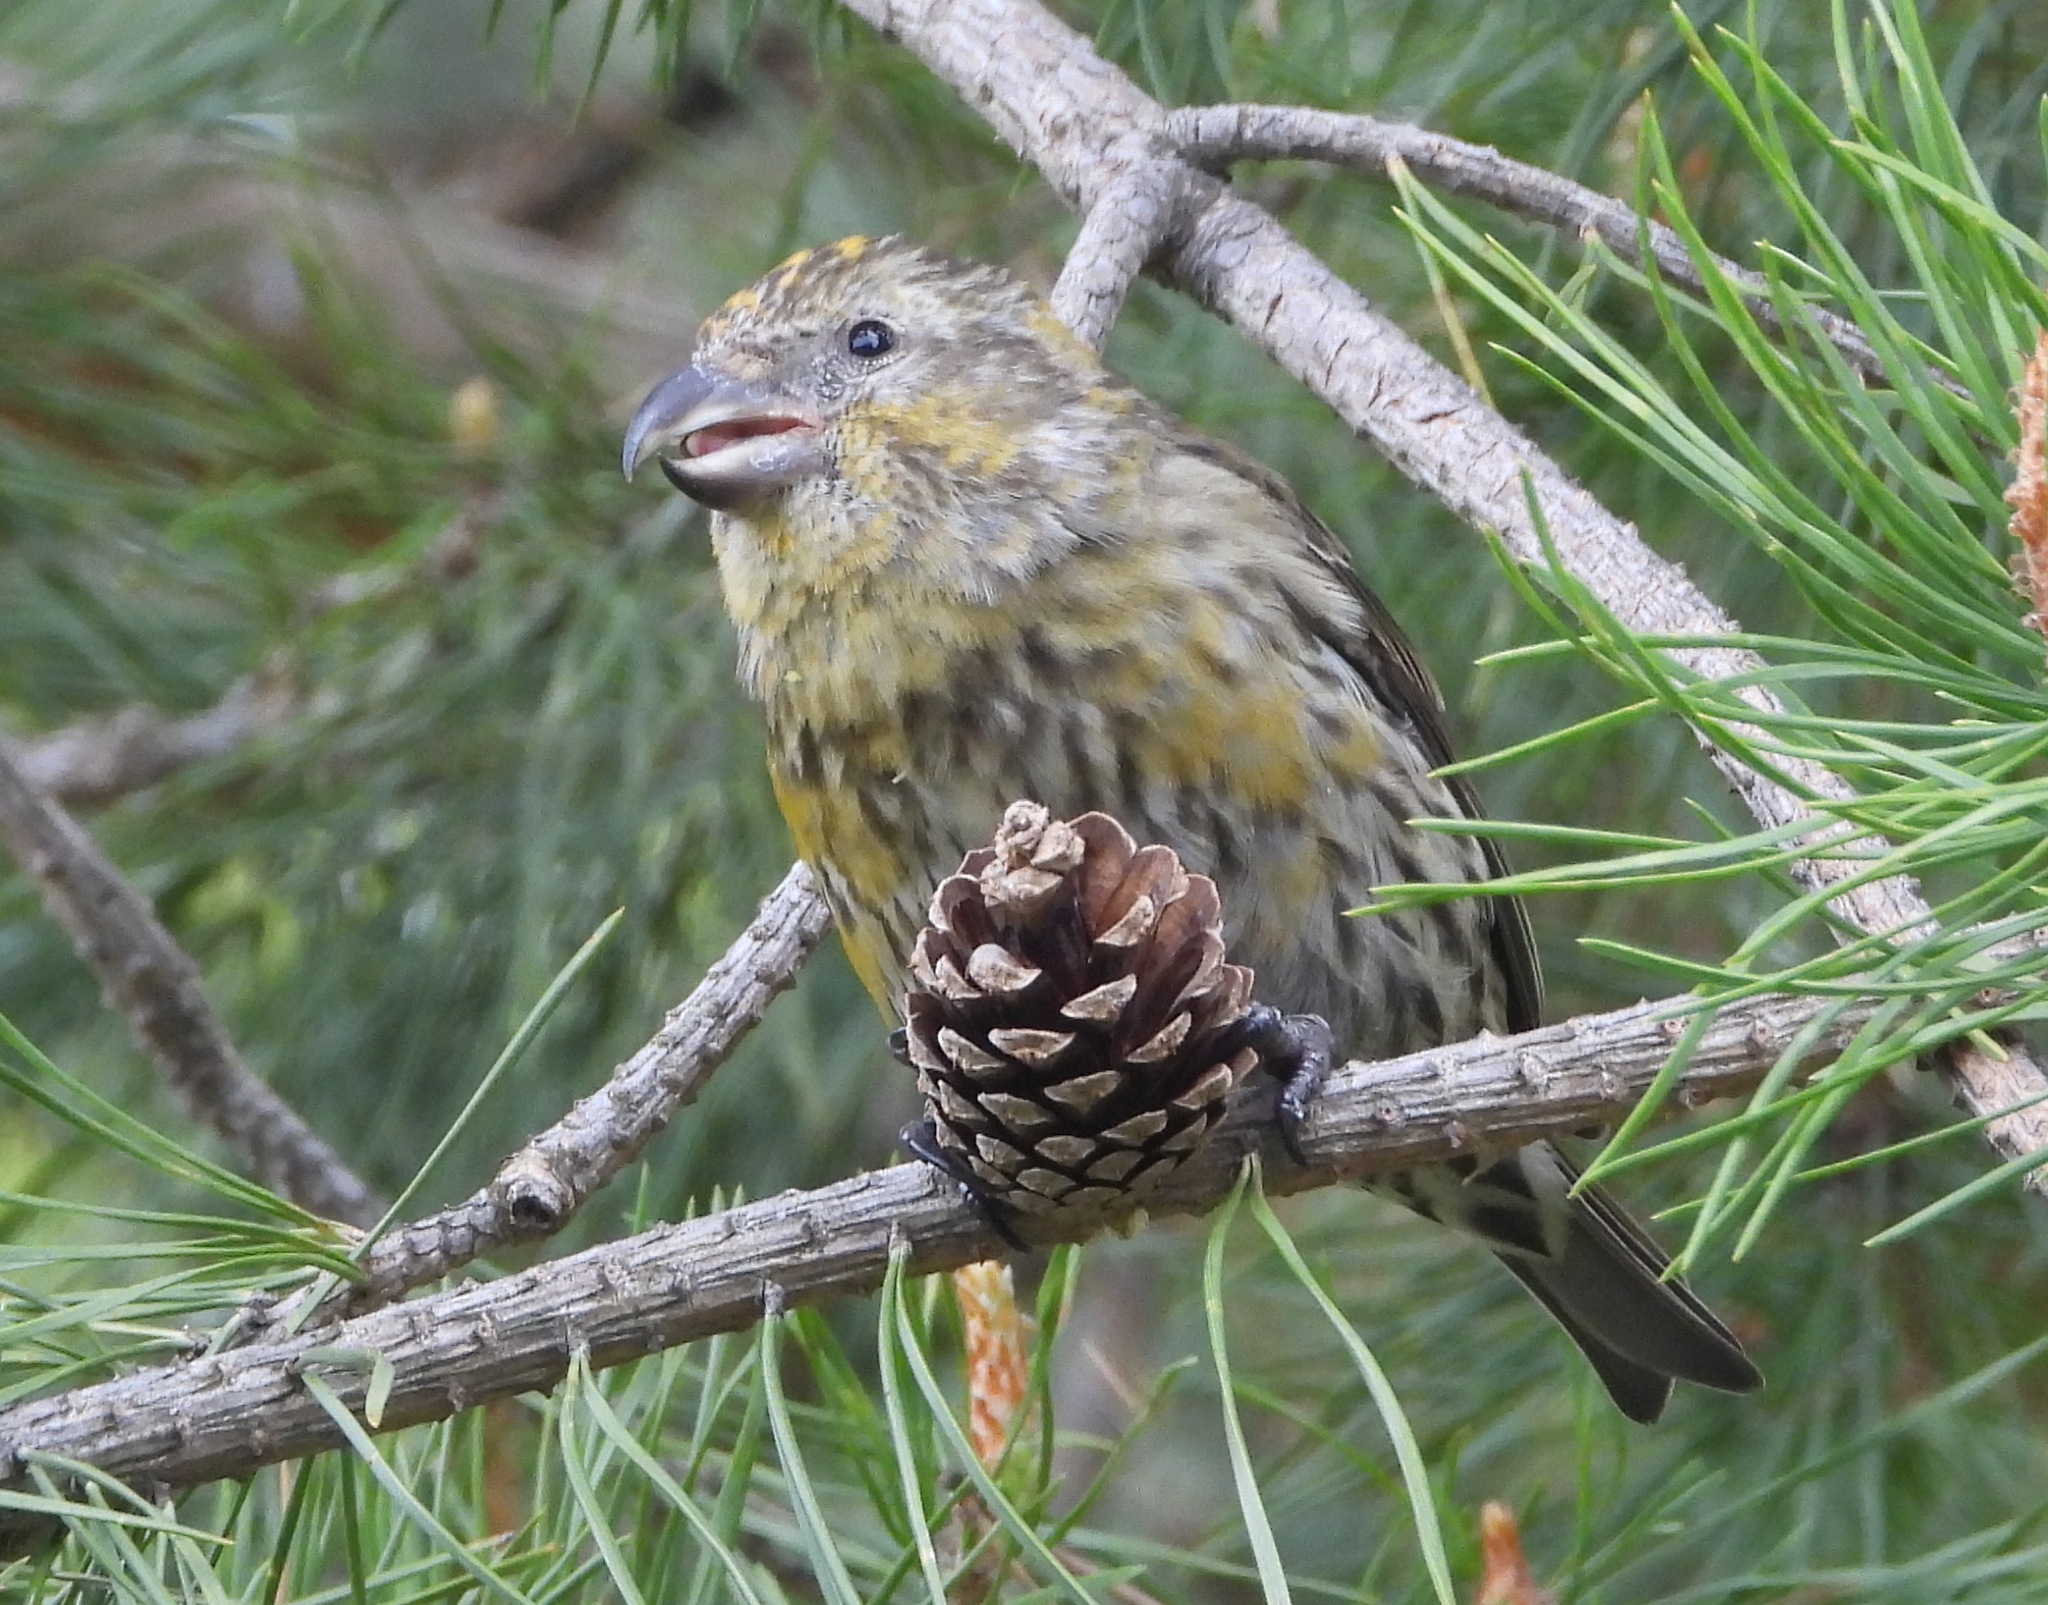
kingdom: Animalia
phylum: Chordata
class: Aves
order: Passeriformes
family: Fringillidae
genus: Loxia
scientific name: Loxia curvirostra
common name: Red crossbill
